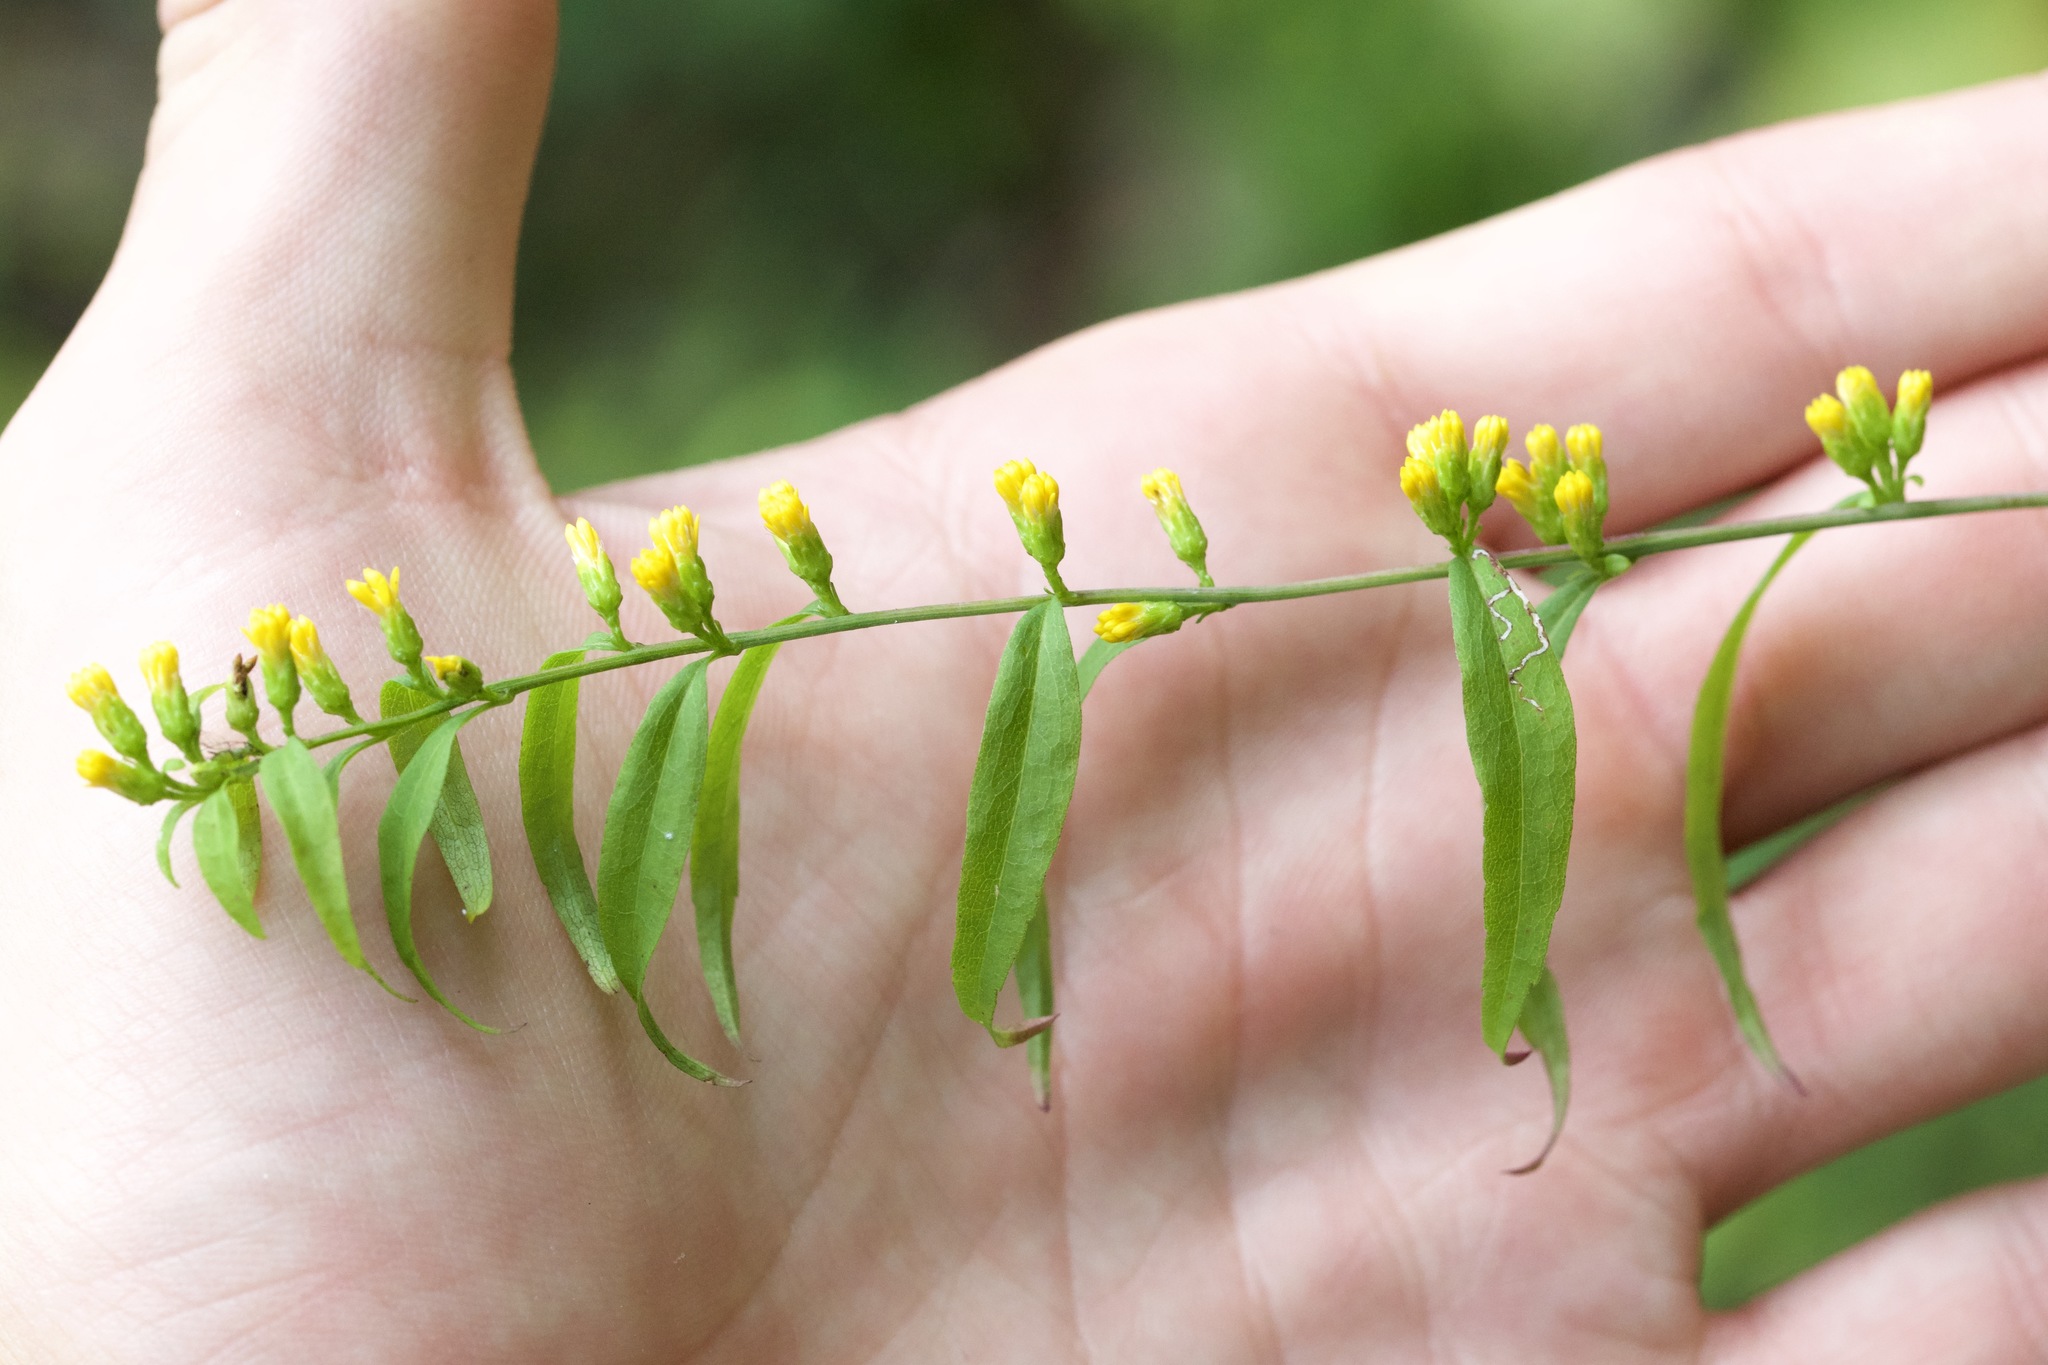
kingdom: Plantae
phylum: Tracheophyta
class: Magnoliopsida
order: Asterales
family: Asteraceae
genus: Solidago
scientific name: Solidago caesia
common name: Woodland goldenrod
